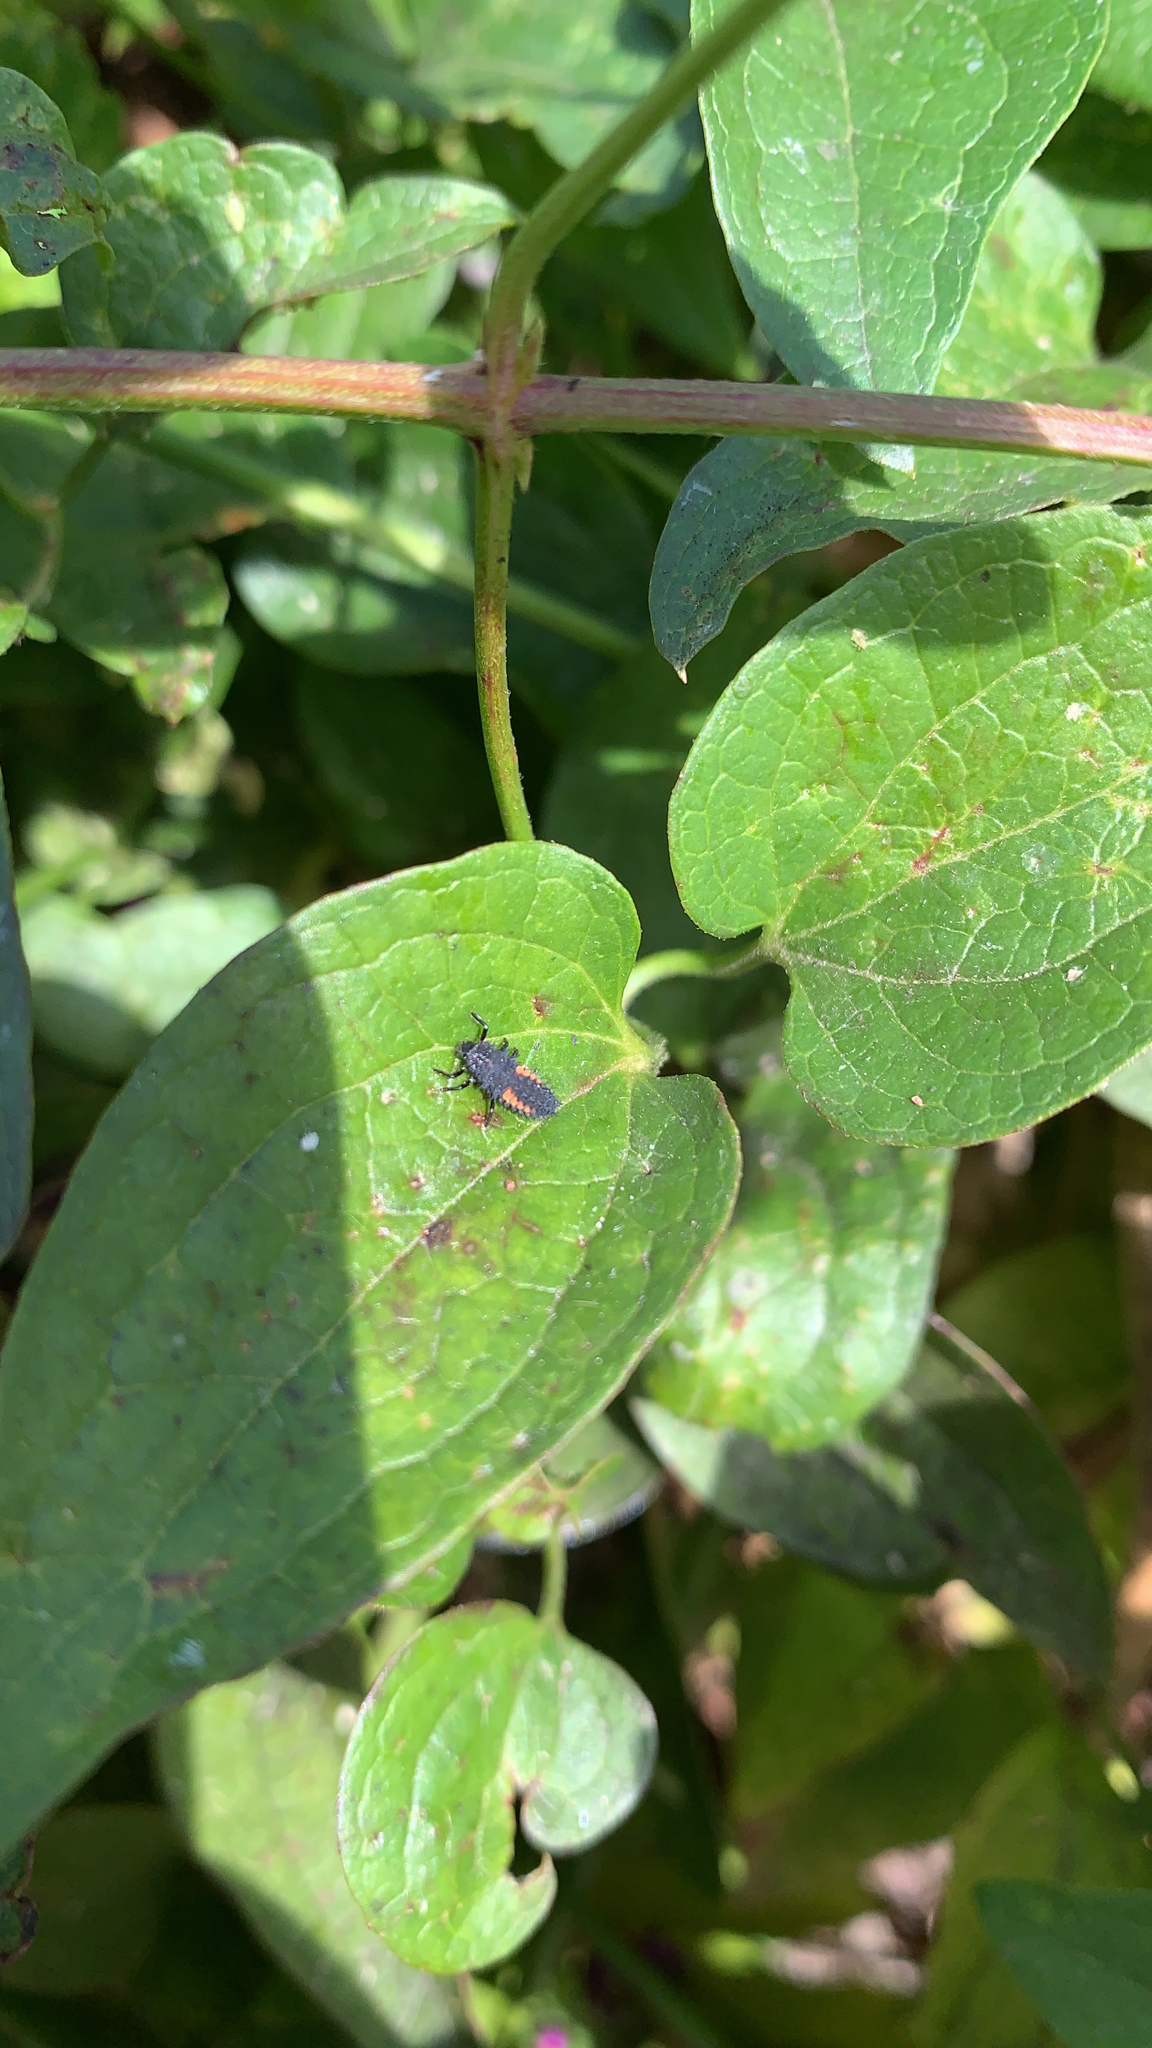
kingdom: Animalia
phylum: Arthropoda
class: Insecta
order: Coleoptera
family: Coccinellidae
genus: Harmonia
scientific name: Harmonia axyridis
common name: Harlequin ladybird
